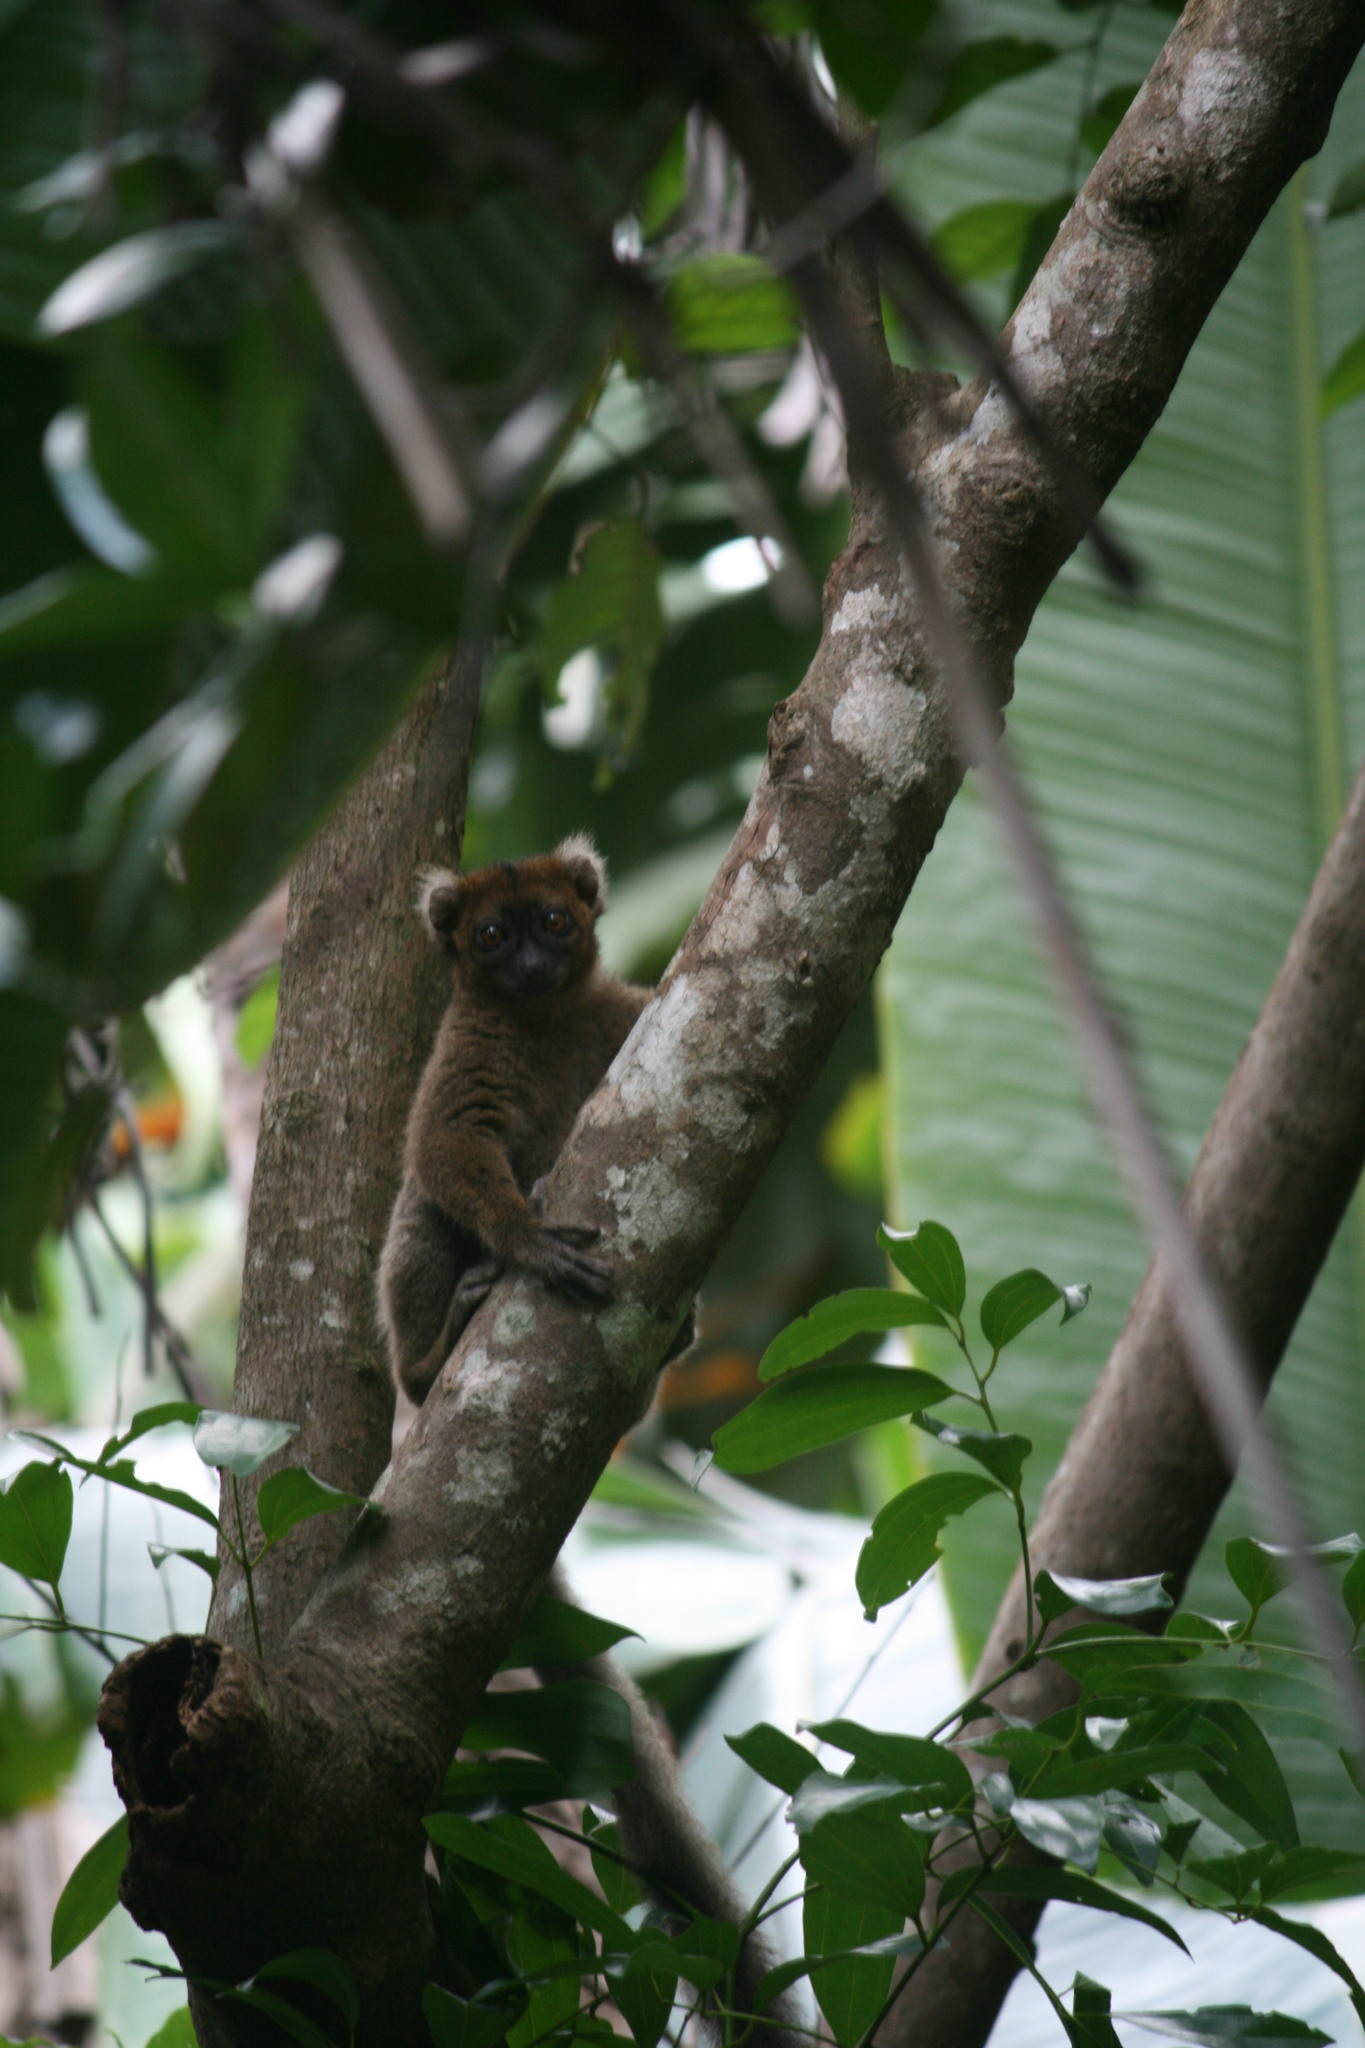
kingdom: Animalia
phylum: Chordata
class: Mammalia
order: Primates
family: Lemuridae
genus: Prolemur
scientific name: Prolemur simus
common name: Greater bamboo lemur
